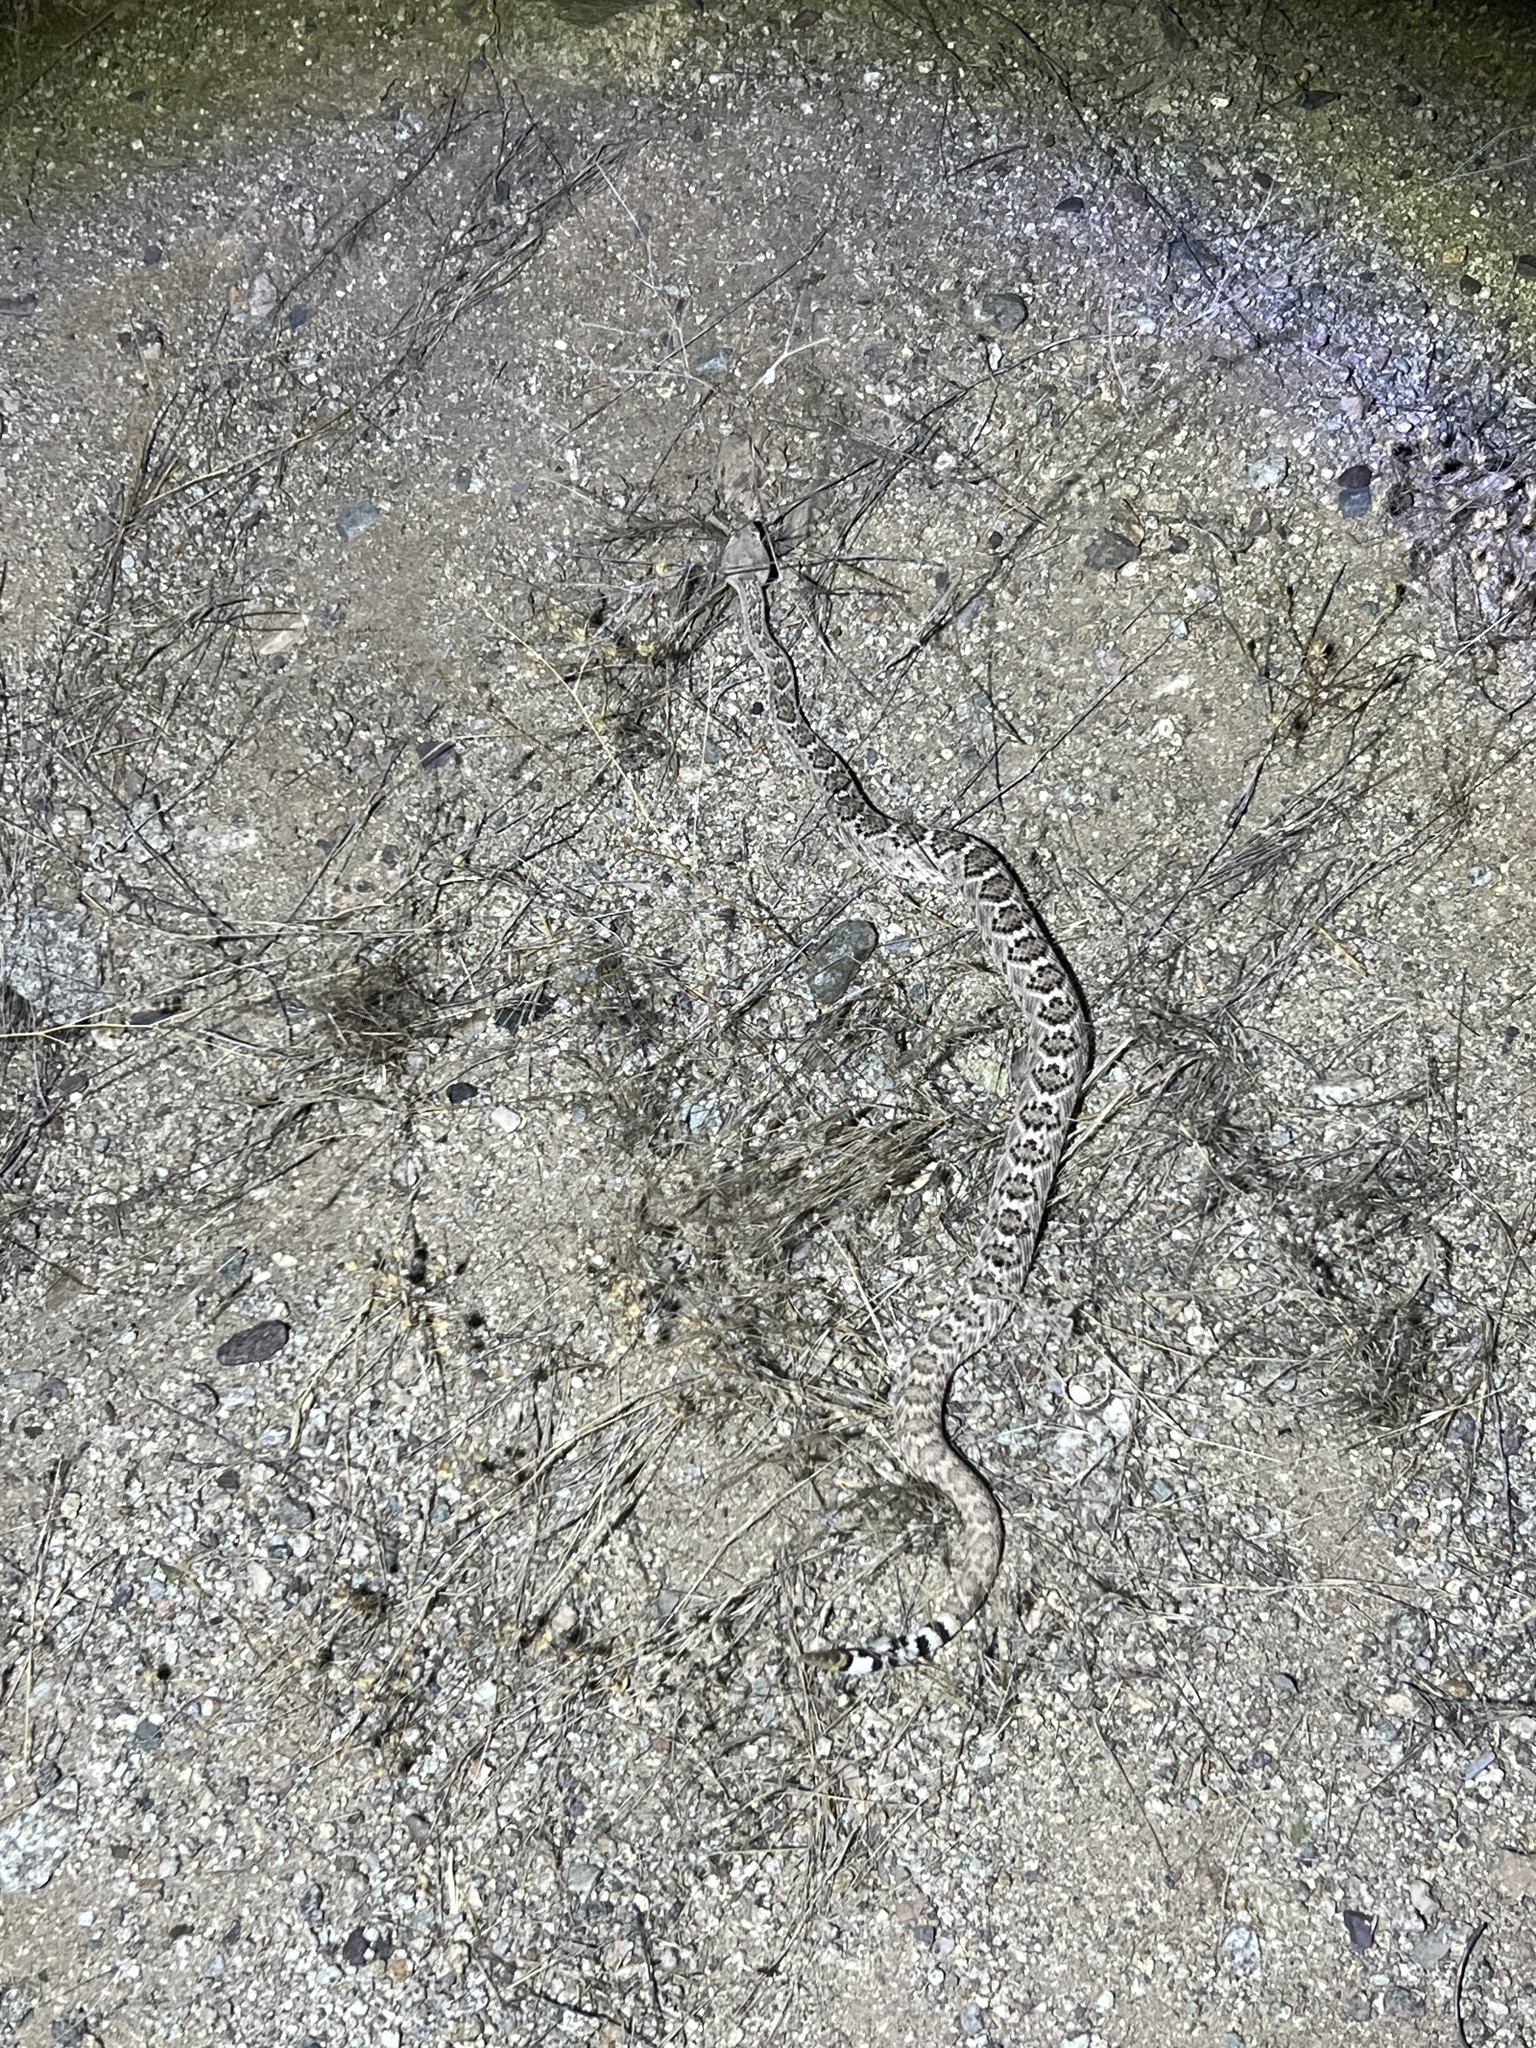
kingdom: Animalia
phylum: Chordata
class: Squamata
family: Viperidae
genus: Crotalus
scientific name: Crotalus atrox
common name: Western diamond-backed rattlesnake
